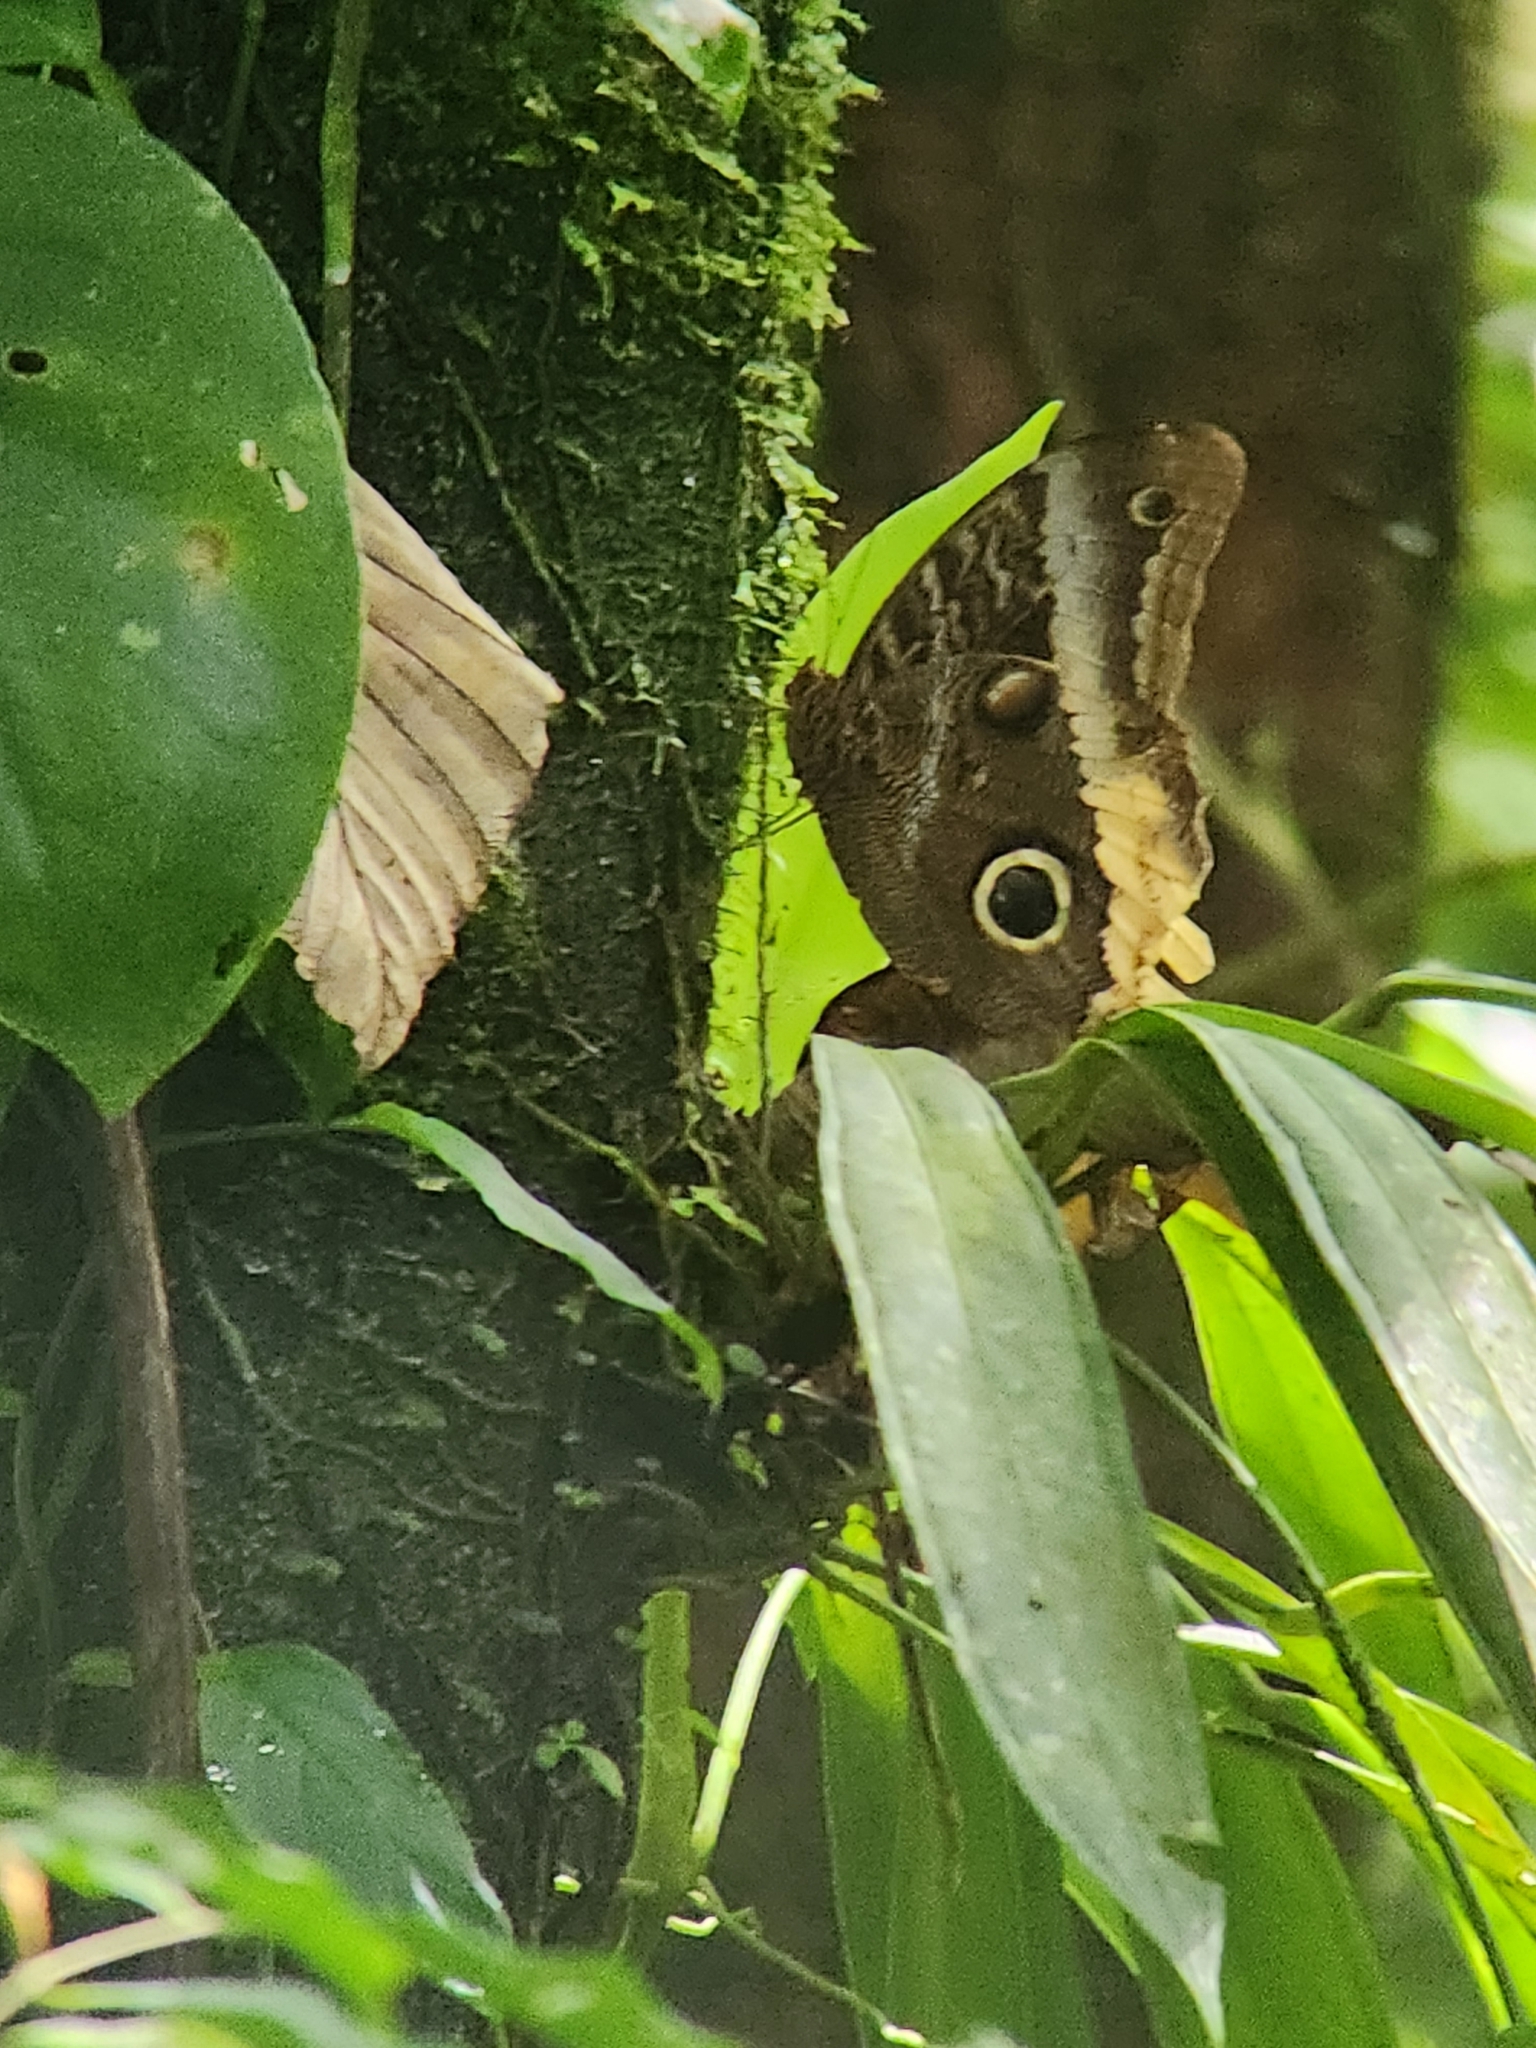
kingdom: Animalia
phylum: Arthropoda
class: Insecta
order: Lepidoptera
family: Nymphalidae
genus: Caligo
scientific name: Caligo atreus
